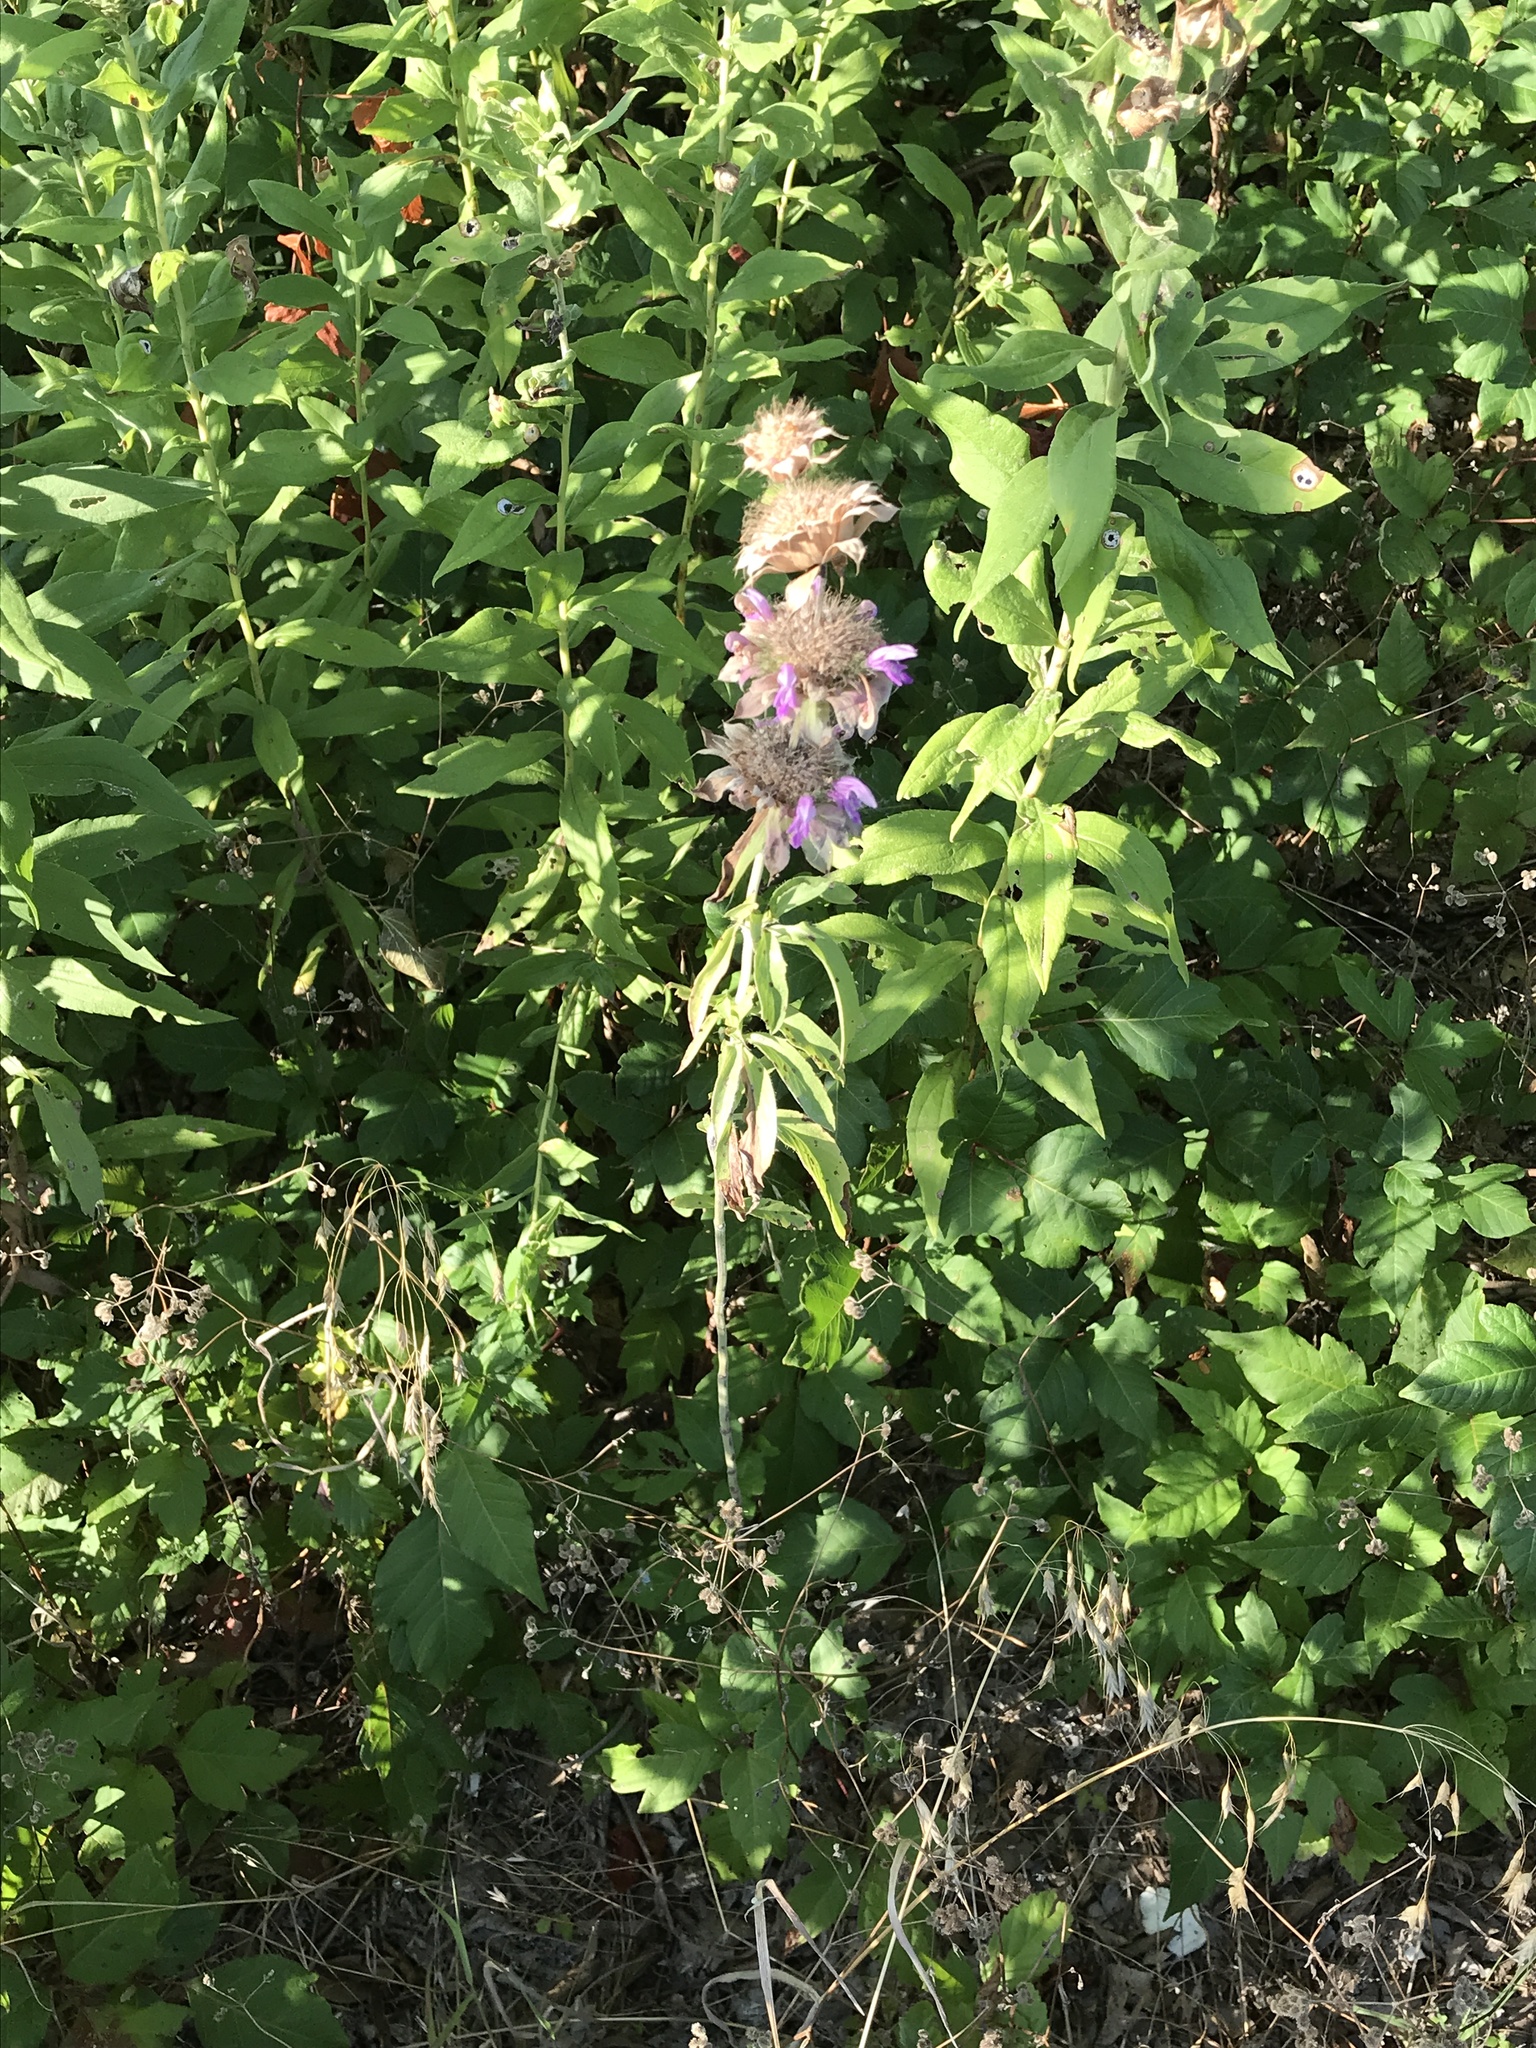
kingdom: Plantae
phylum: Tracheophyta
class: Magnoliopsida
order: Lamiales
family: Lamiaceae
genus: Monarda
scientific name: Monarda citriodora
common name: Lemon beebalm
